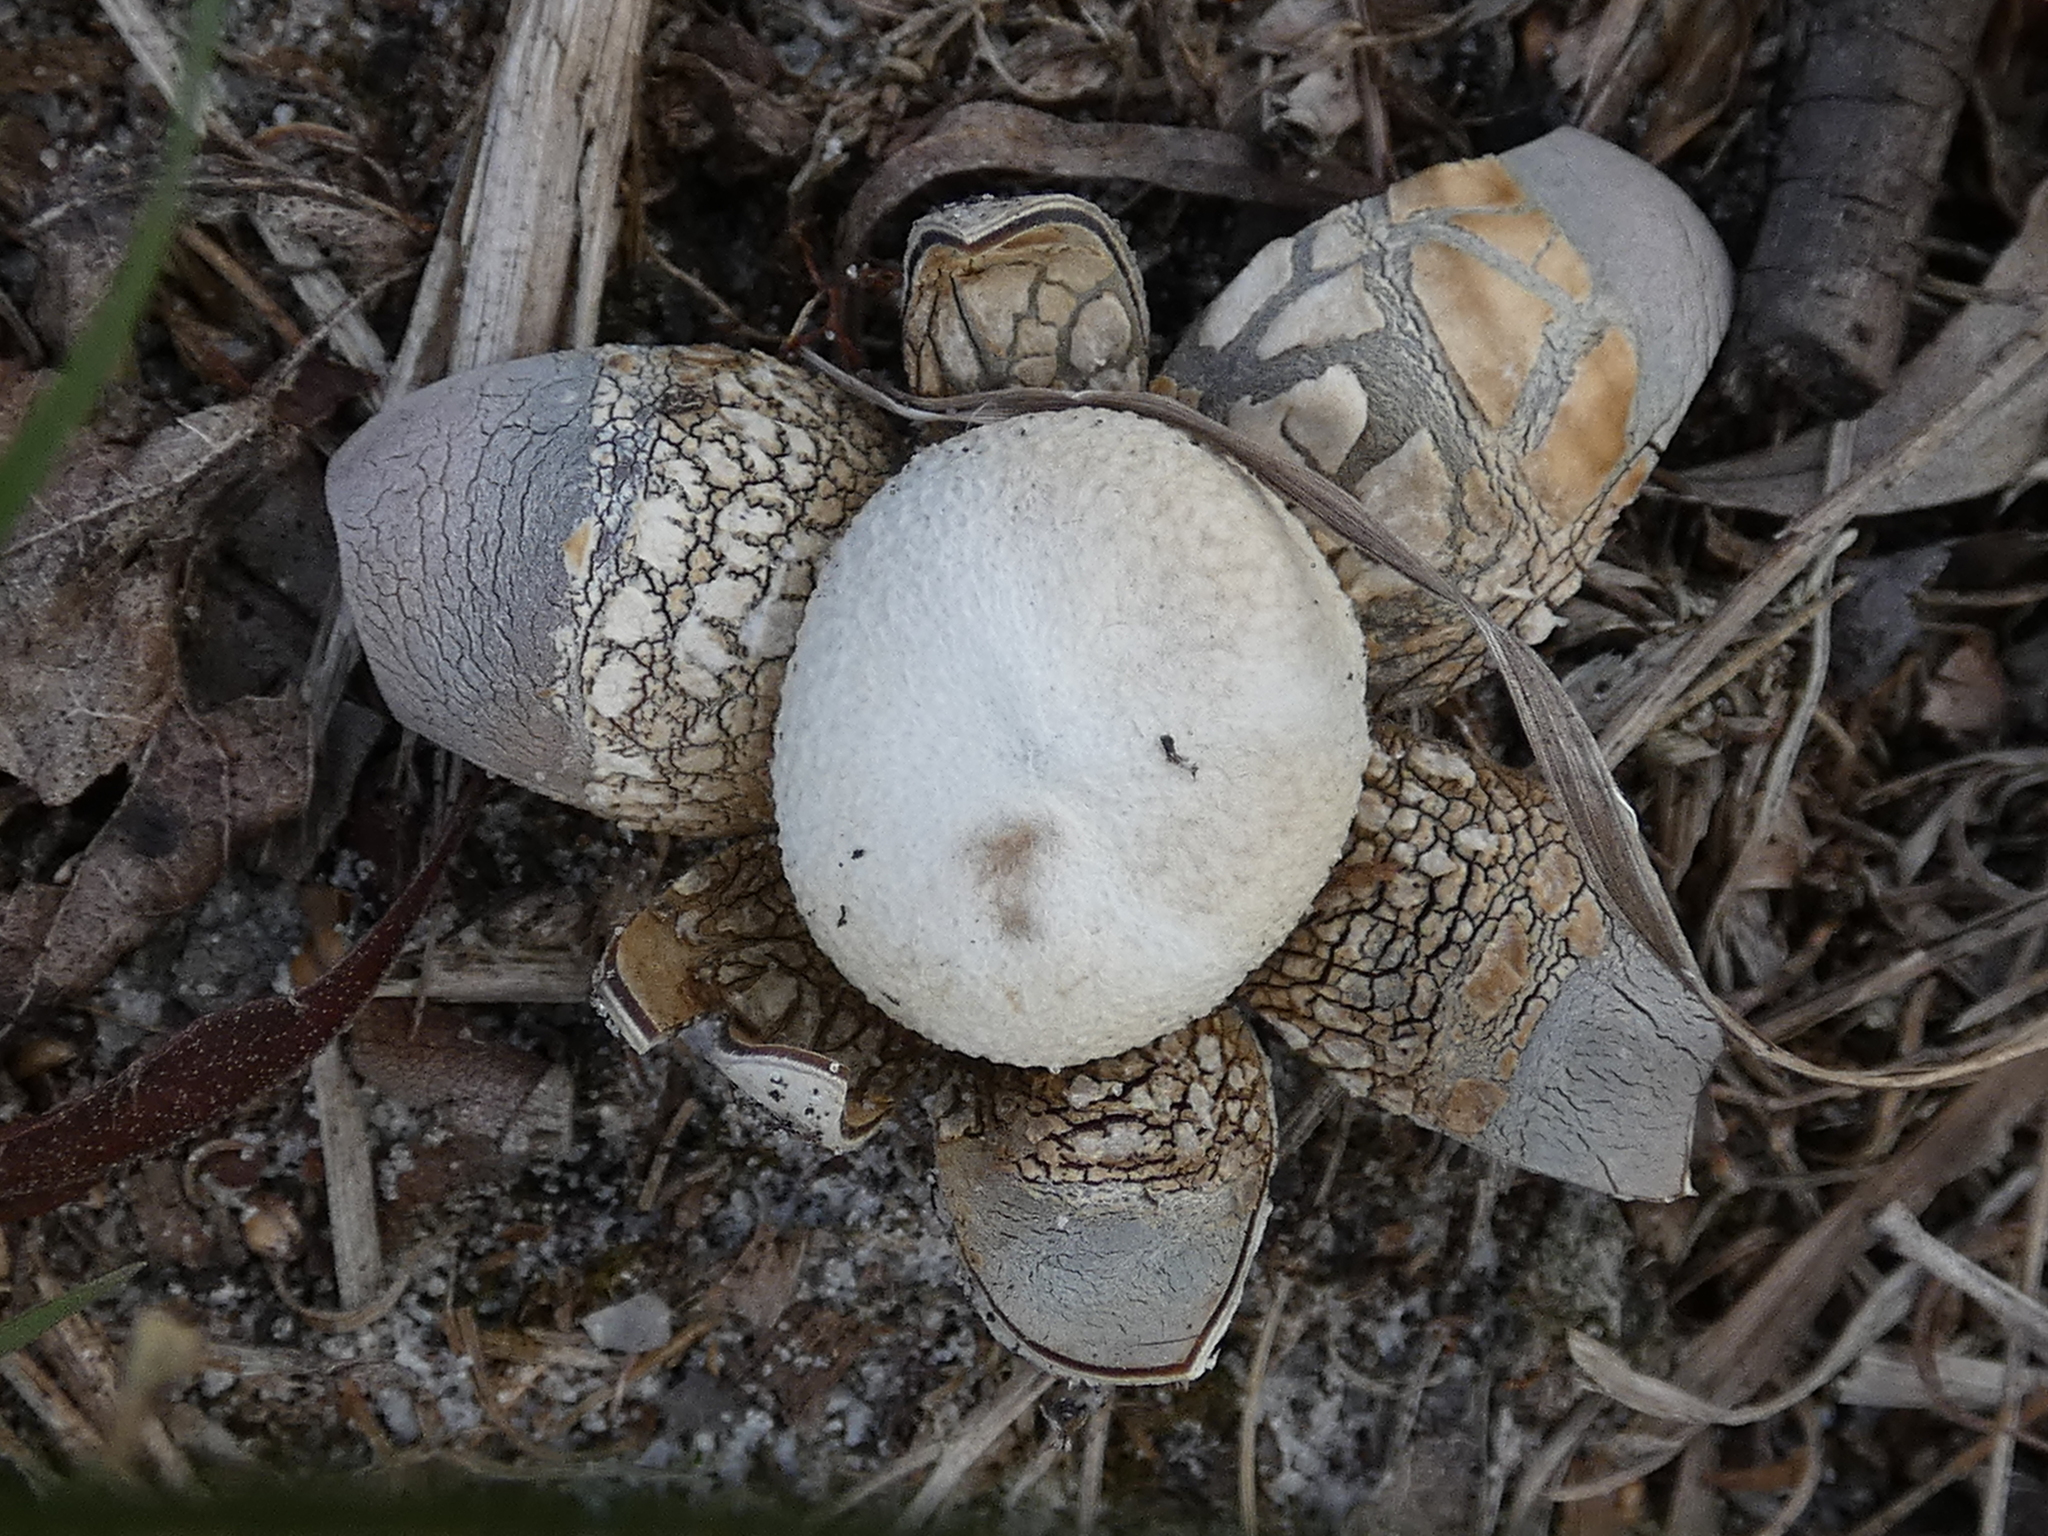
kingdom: Fungi
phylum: Basidiomycota
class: Agaricomycetes
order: Boletales
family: Diplocystidiaceae
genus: Astraeus
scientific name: Astraeus hygrometricus
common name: Barometer earthstar
